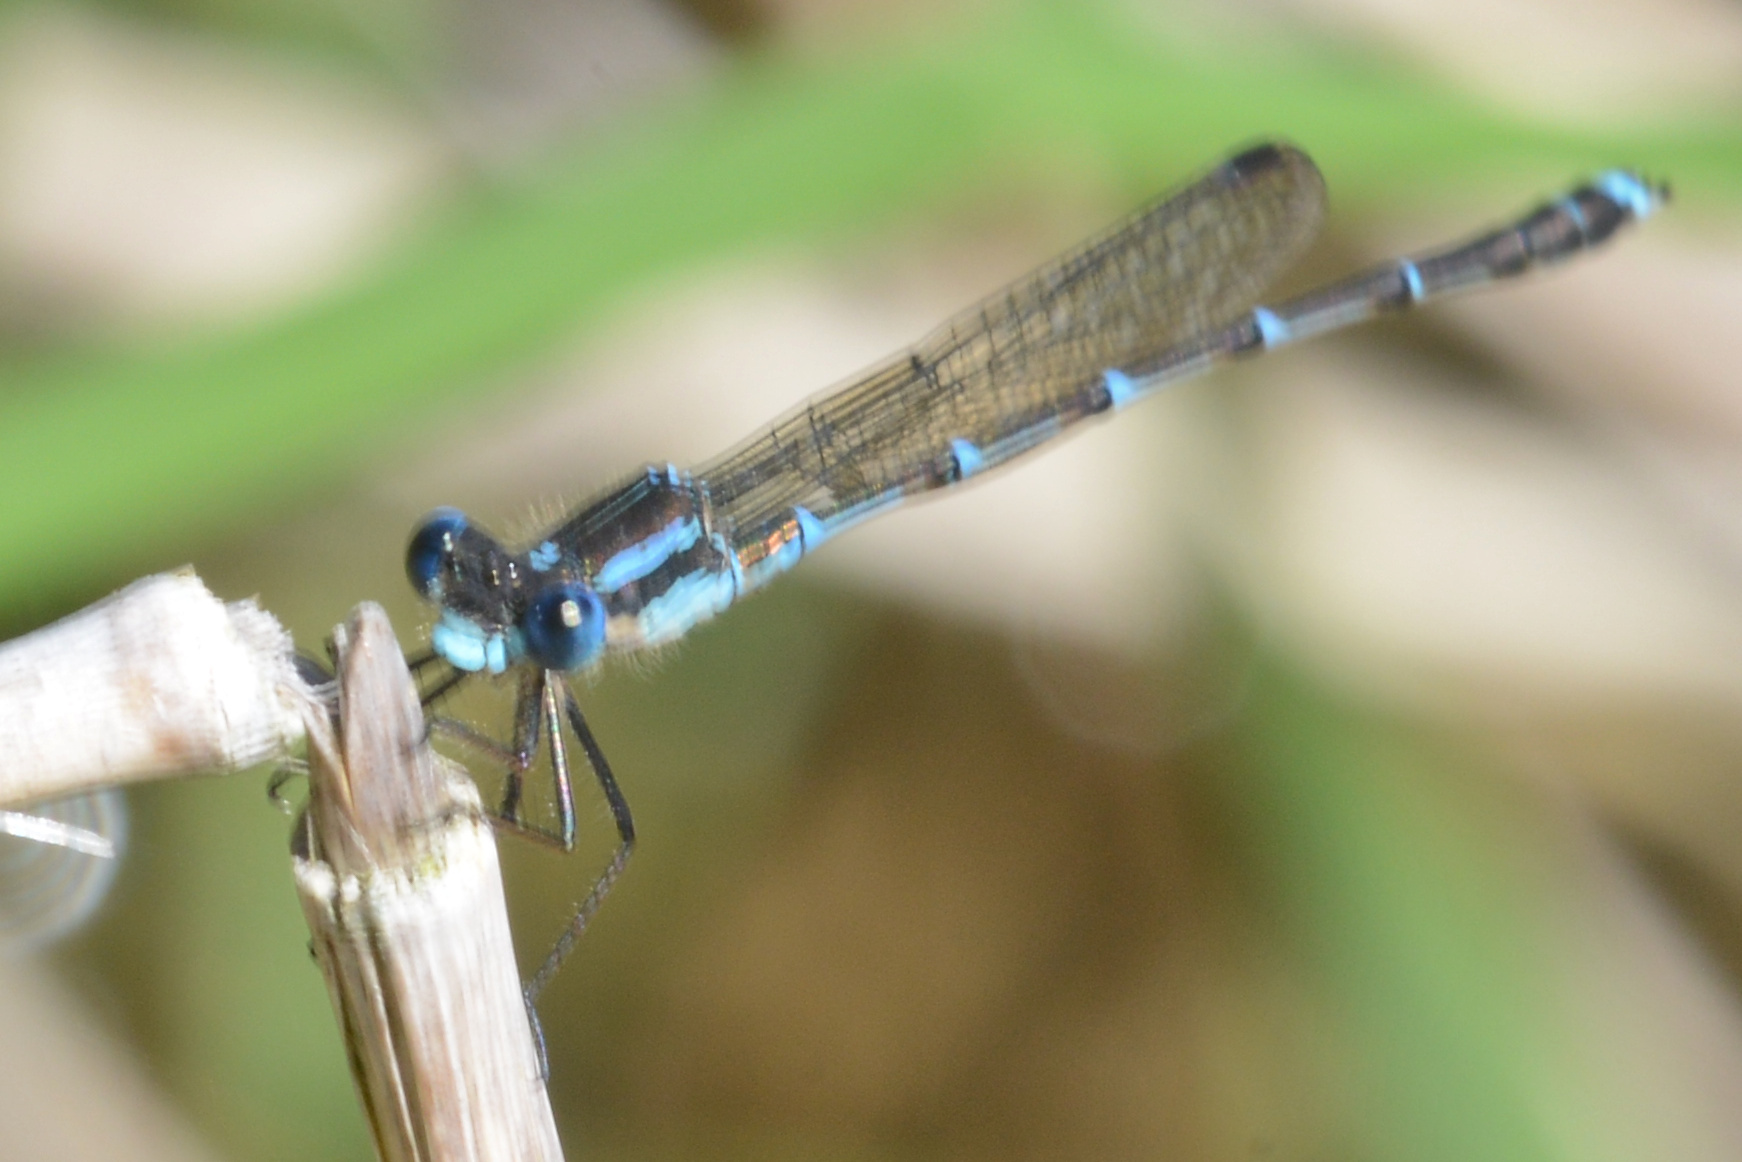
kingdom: Animalia
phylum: Arthropoda
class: Insecta
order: Odonata
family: Lestidae
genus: Austrolestes
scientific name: Austrolestes colensonis
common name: Blue damselfly
